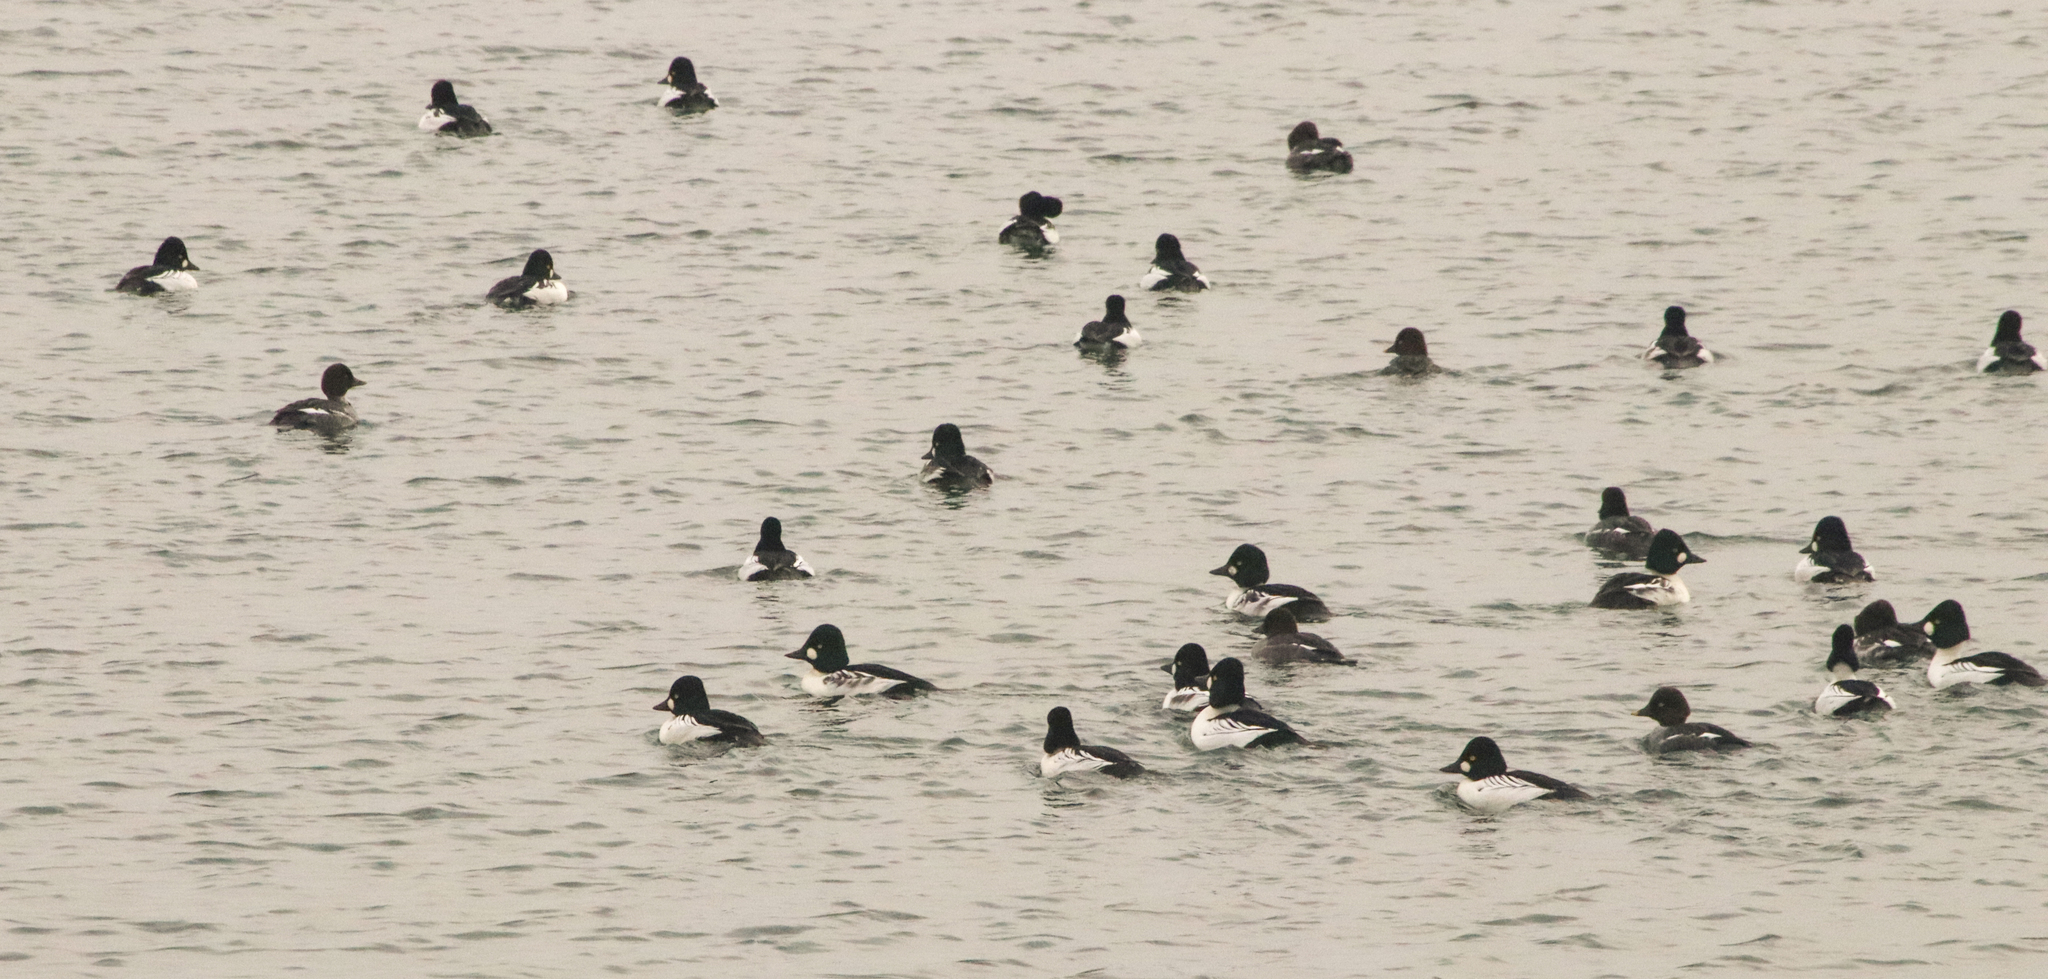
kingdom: Animalia
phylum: Chordata
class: Aves
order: Anseriformes
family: Anatidae
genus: Bucephala
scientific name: Bucephala clangula
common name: Common goldeneye
